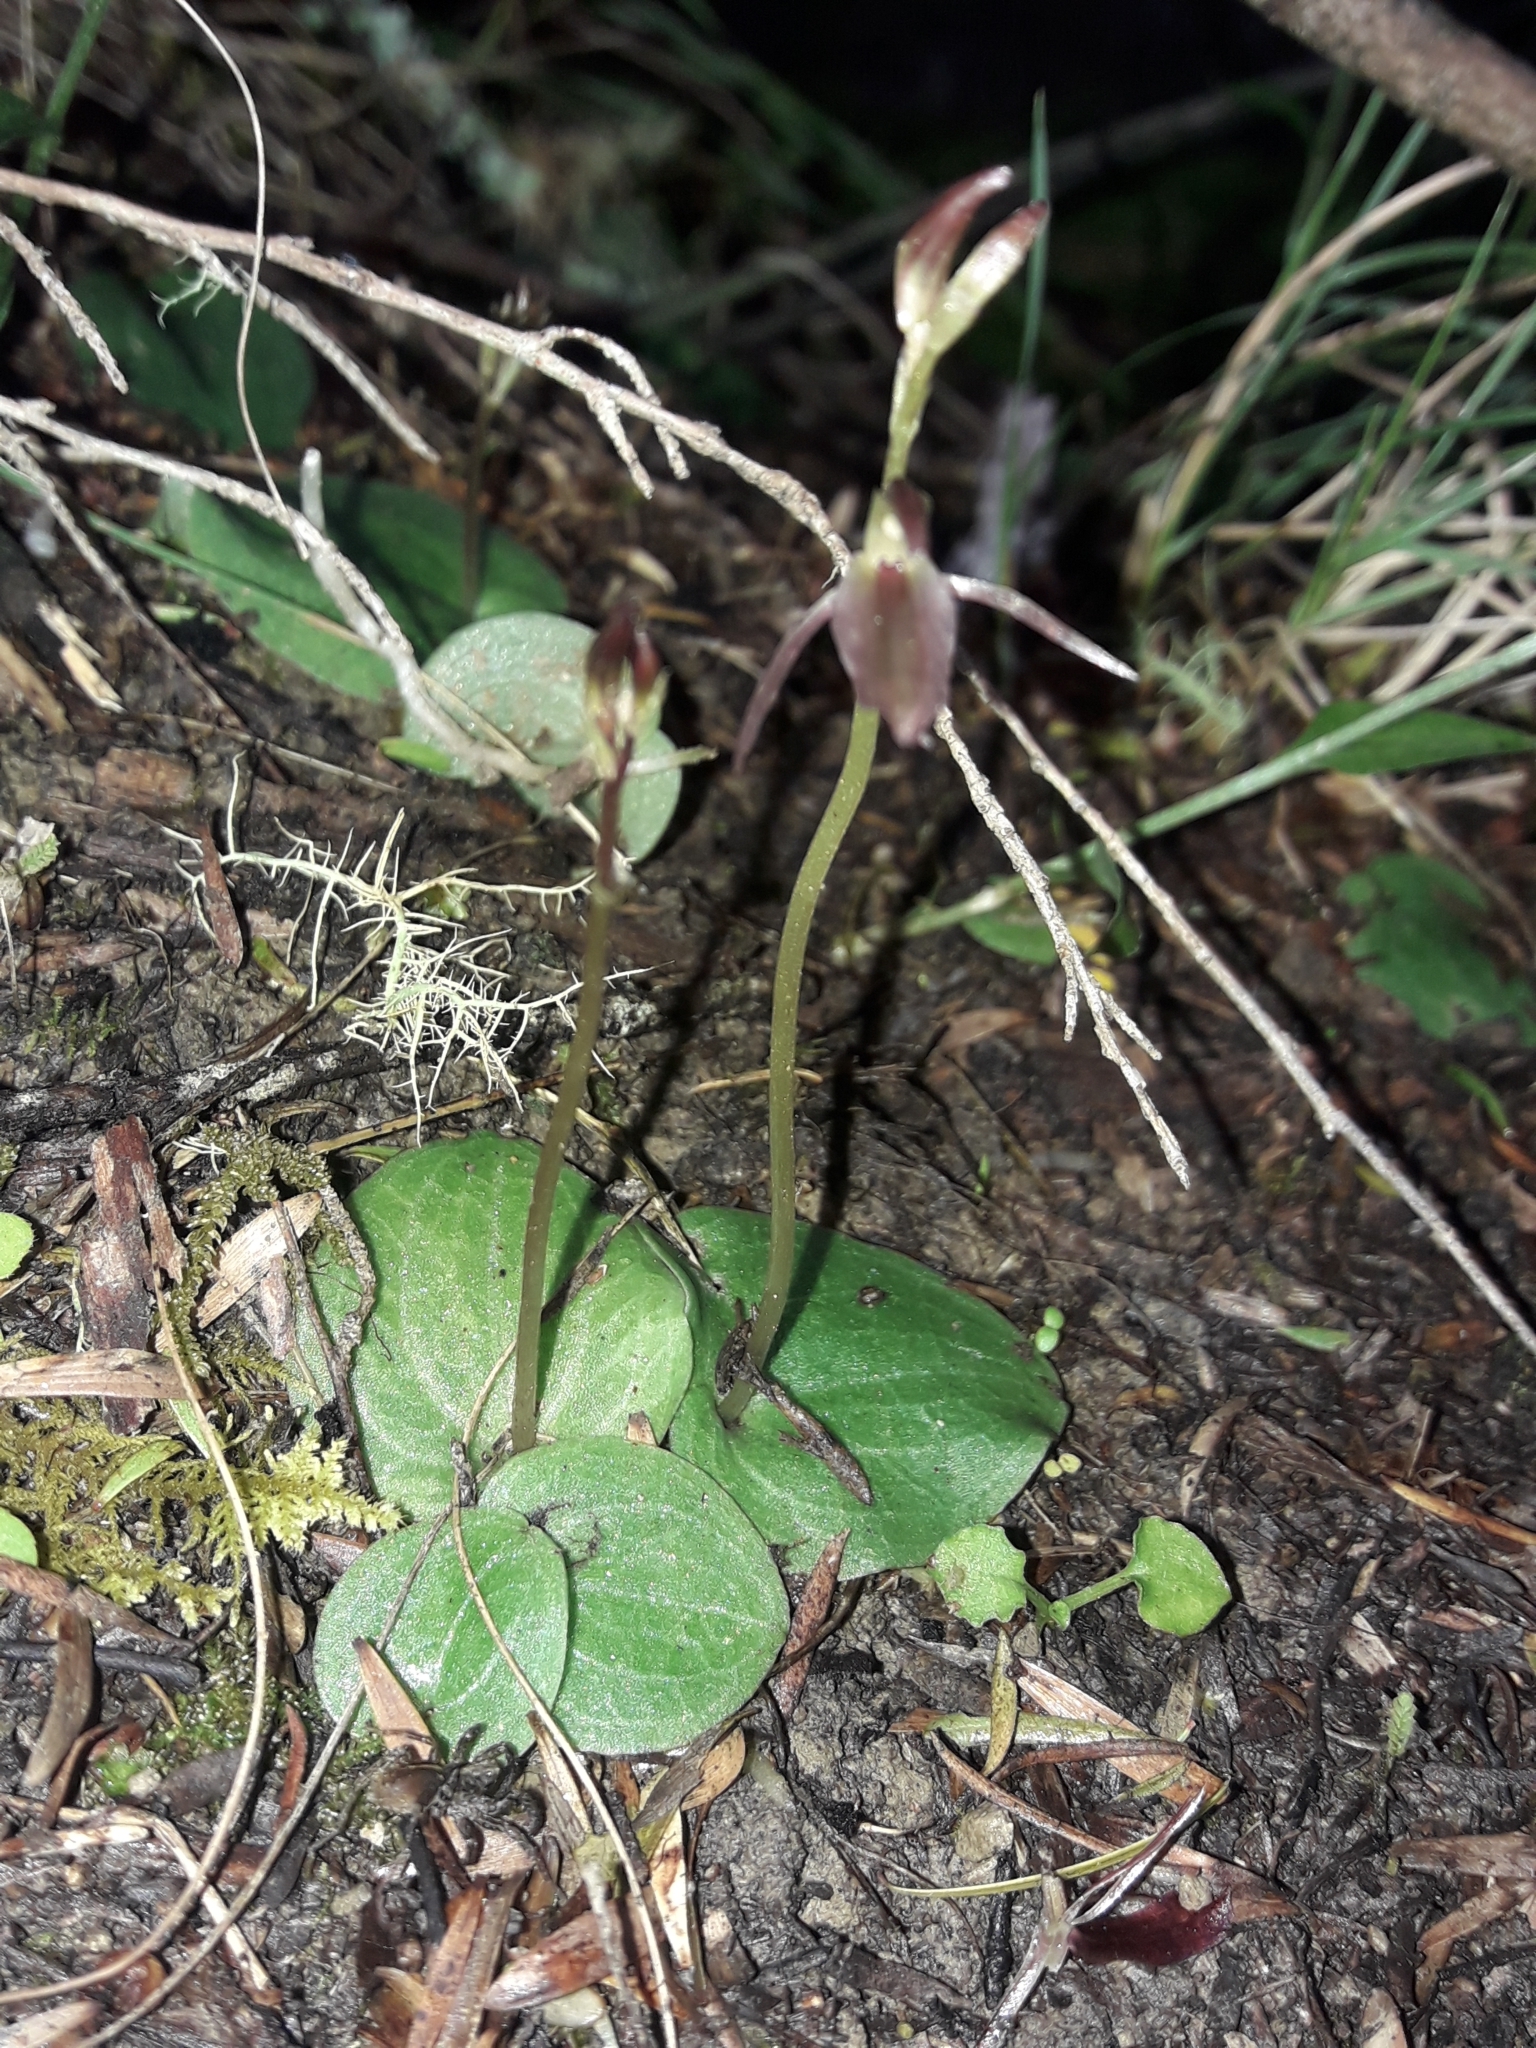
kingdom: Plantae
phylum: Tracheophyta
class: Liliopsida
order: Asparagales
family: Orchidaceae
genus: Cyrtostylis
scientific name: Cyrtostylis rotundifolia
